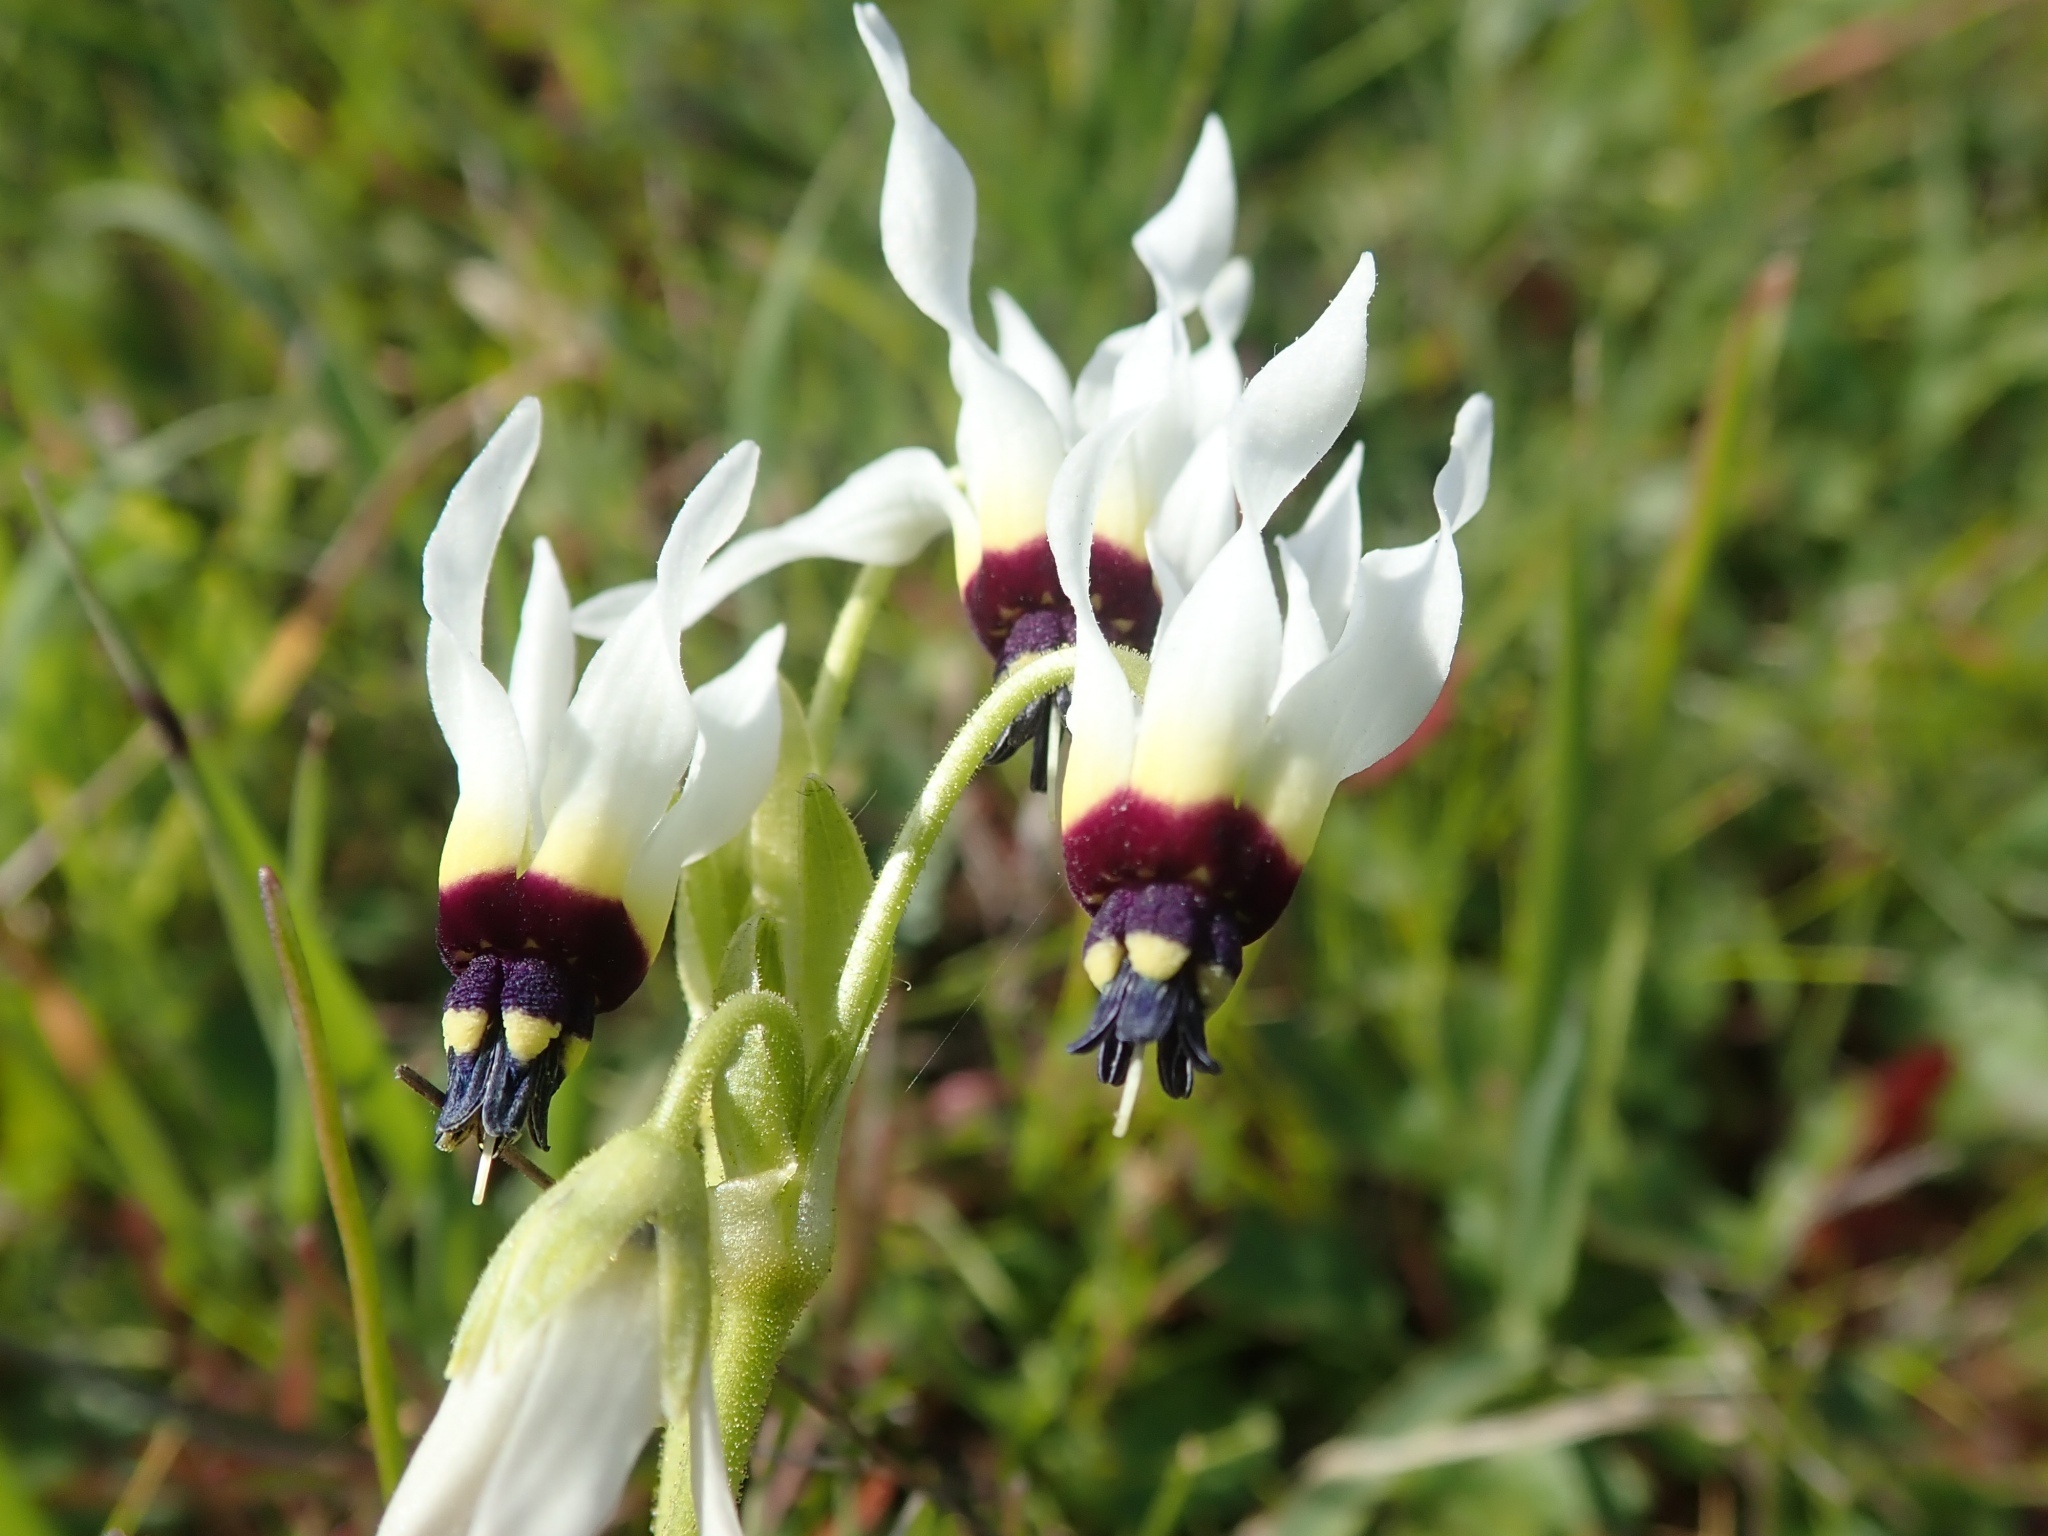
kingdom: Plantae
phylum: Tracheophyta
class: Magnoliopsida
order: Ericales
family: Primulaceae
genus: Dodecatheon
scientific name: Dodecatheon clevelandii
